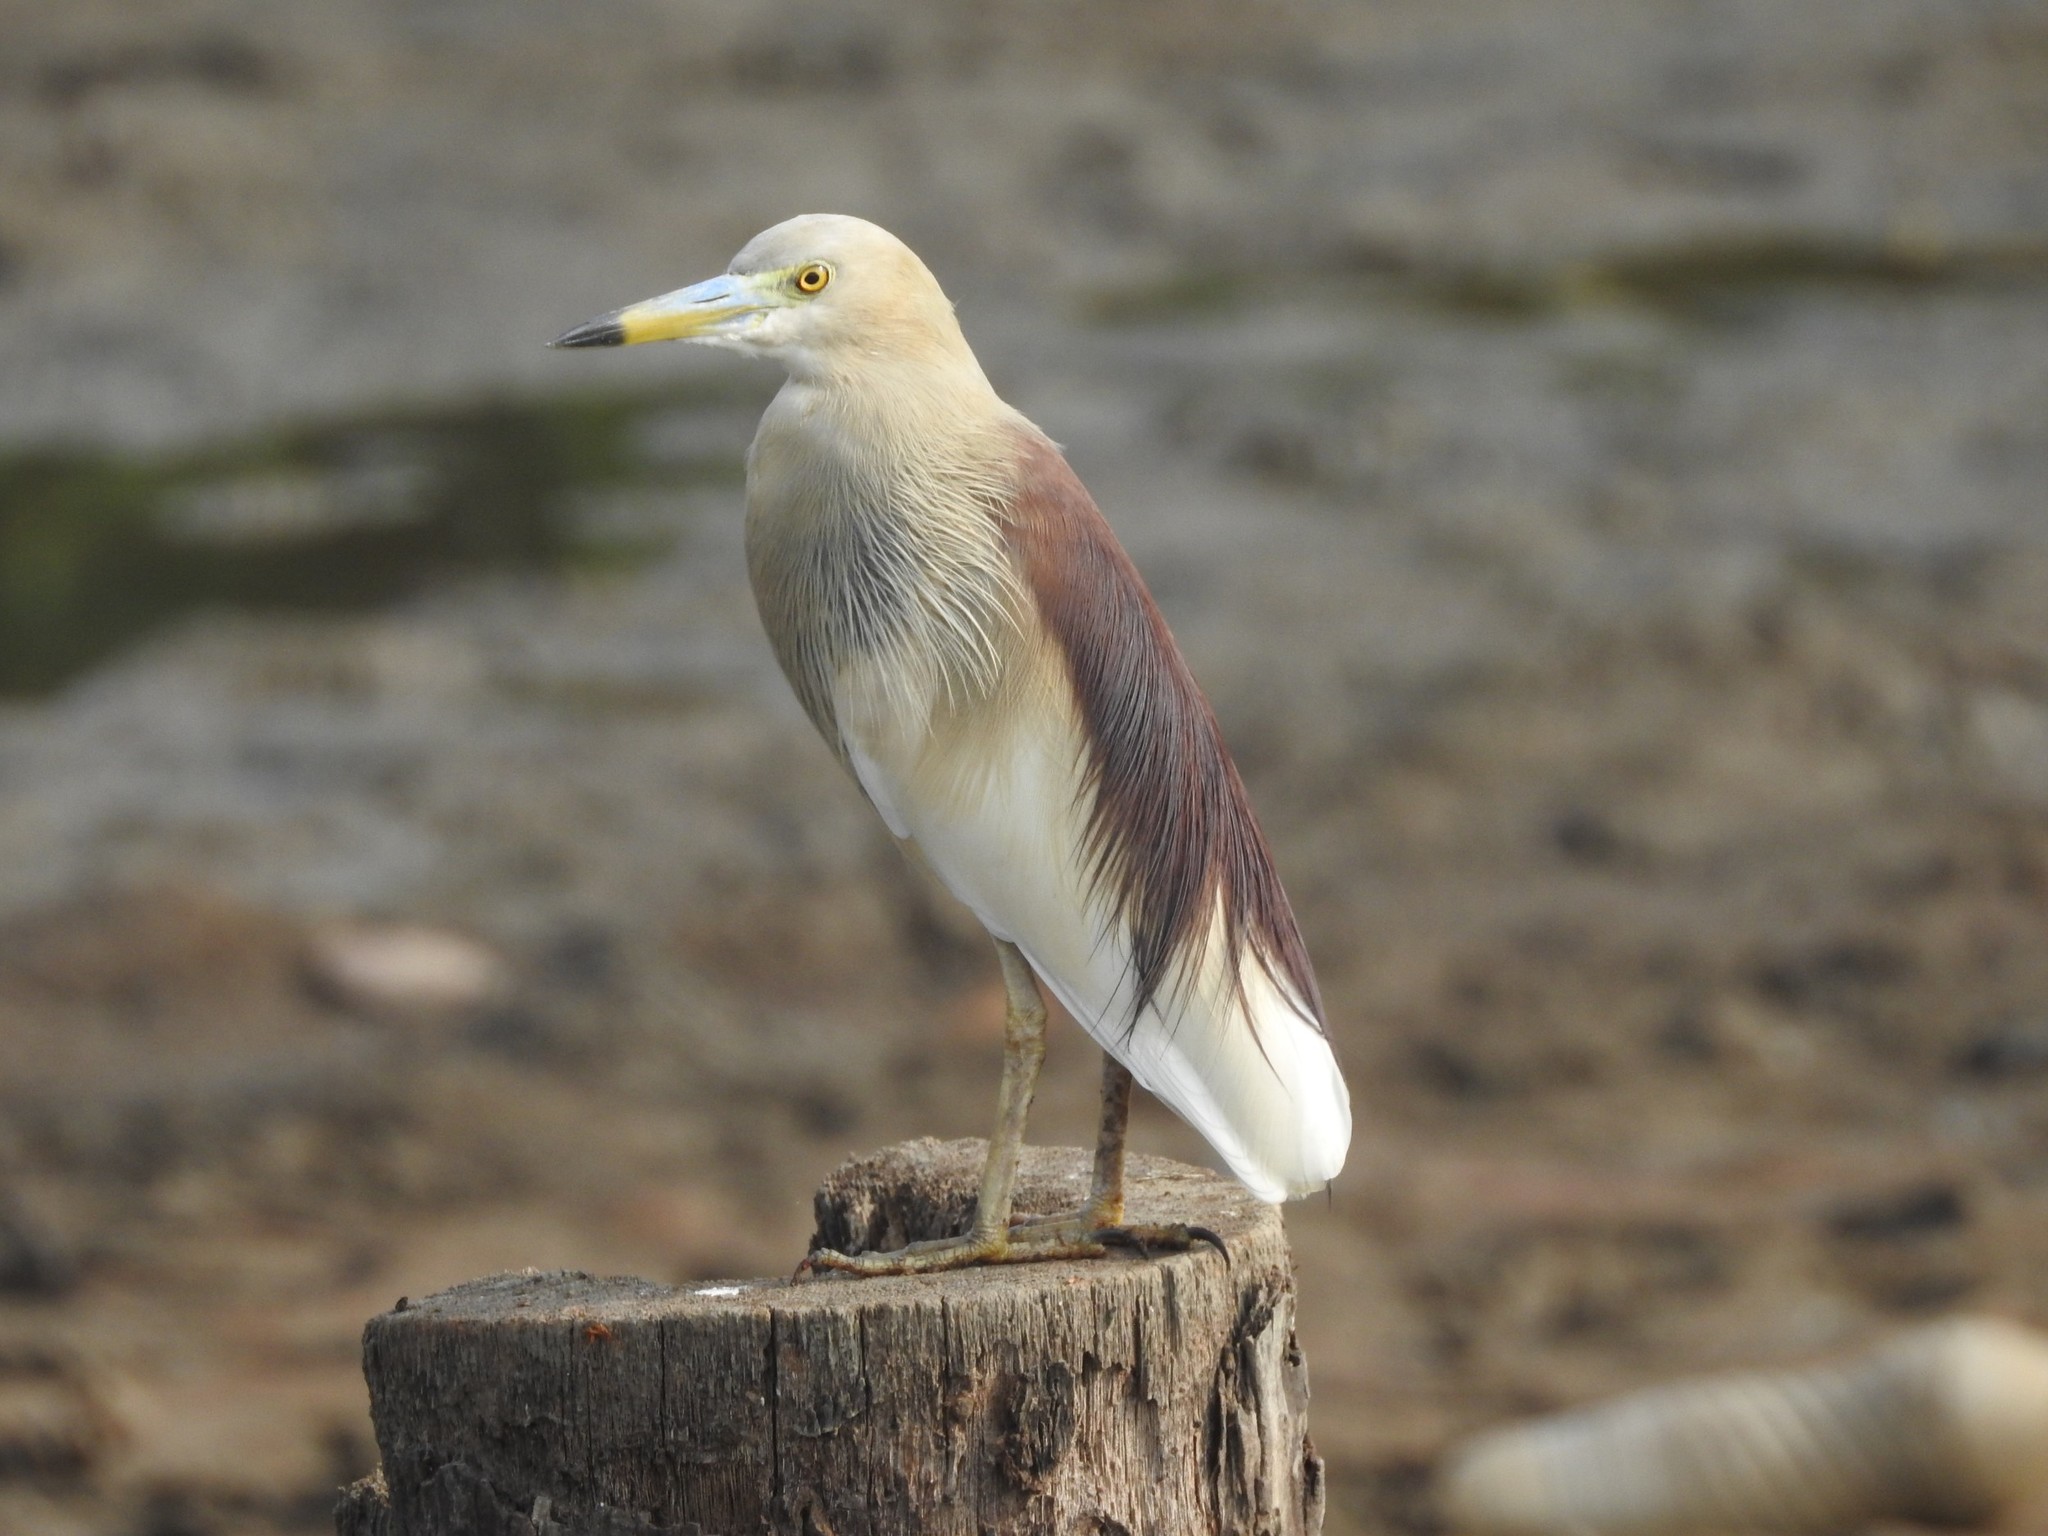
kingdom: Animalia
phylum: Chordata
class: Aves
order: Pelecaniformes
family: Ardeidae
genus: Ardeola
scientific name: Ardeola grayii
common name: Indian pond heron
